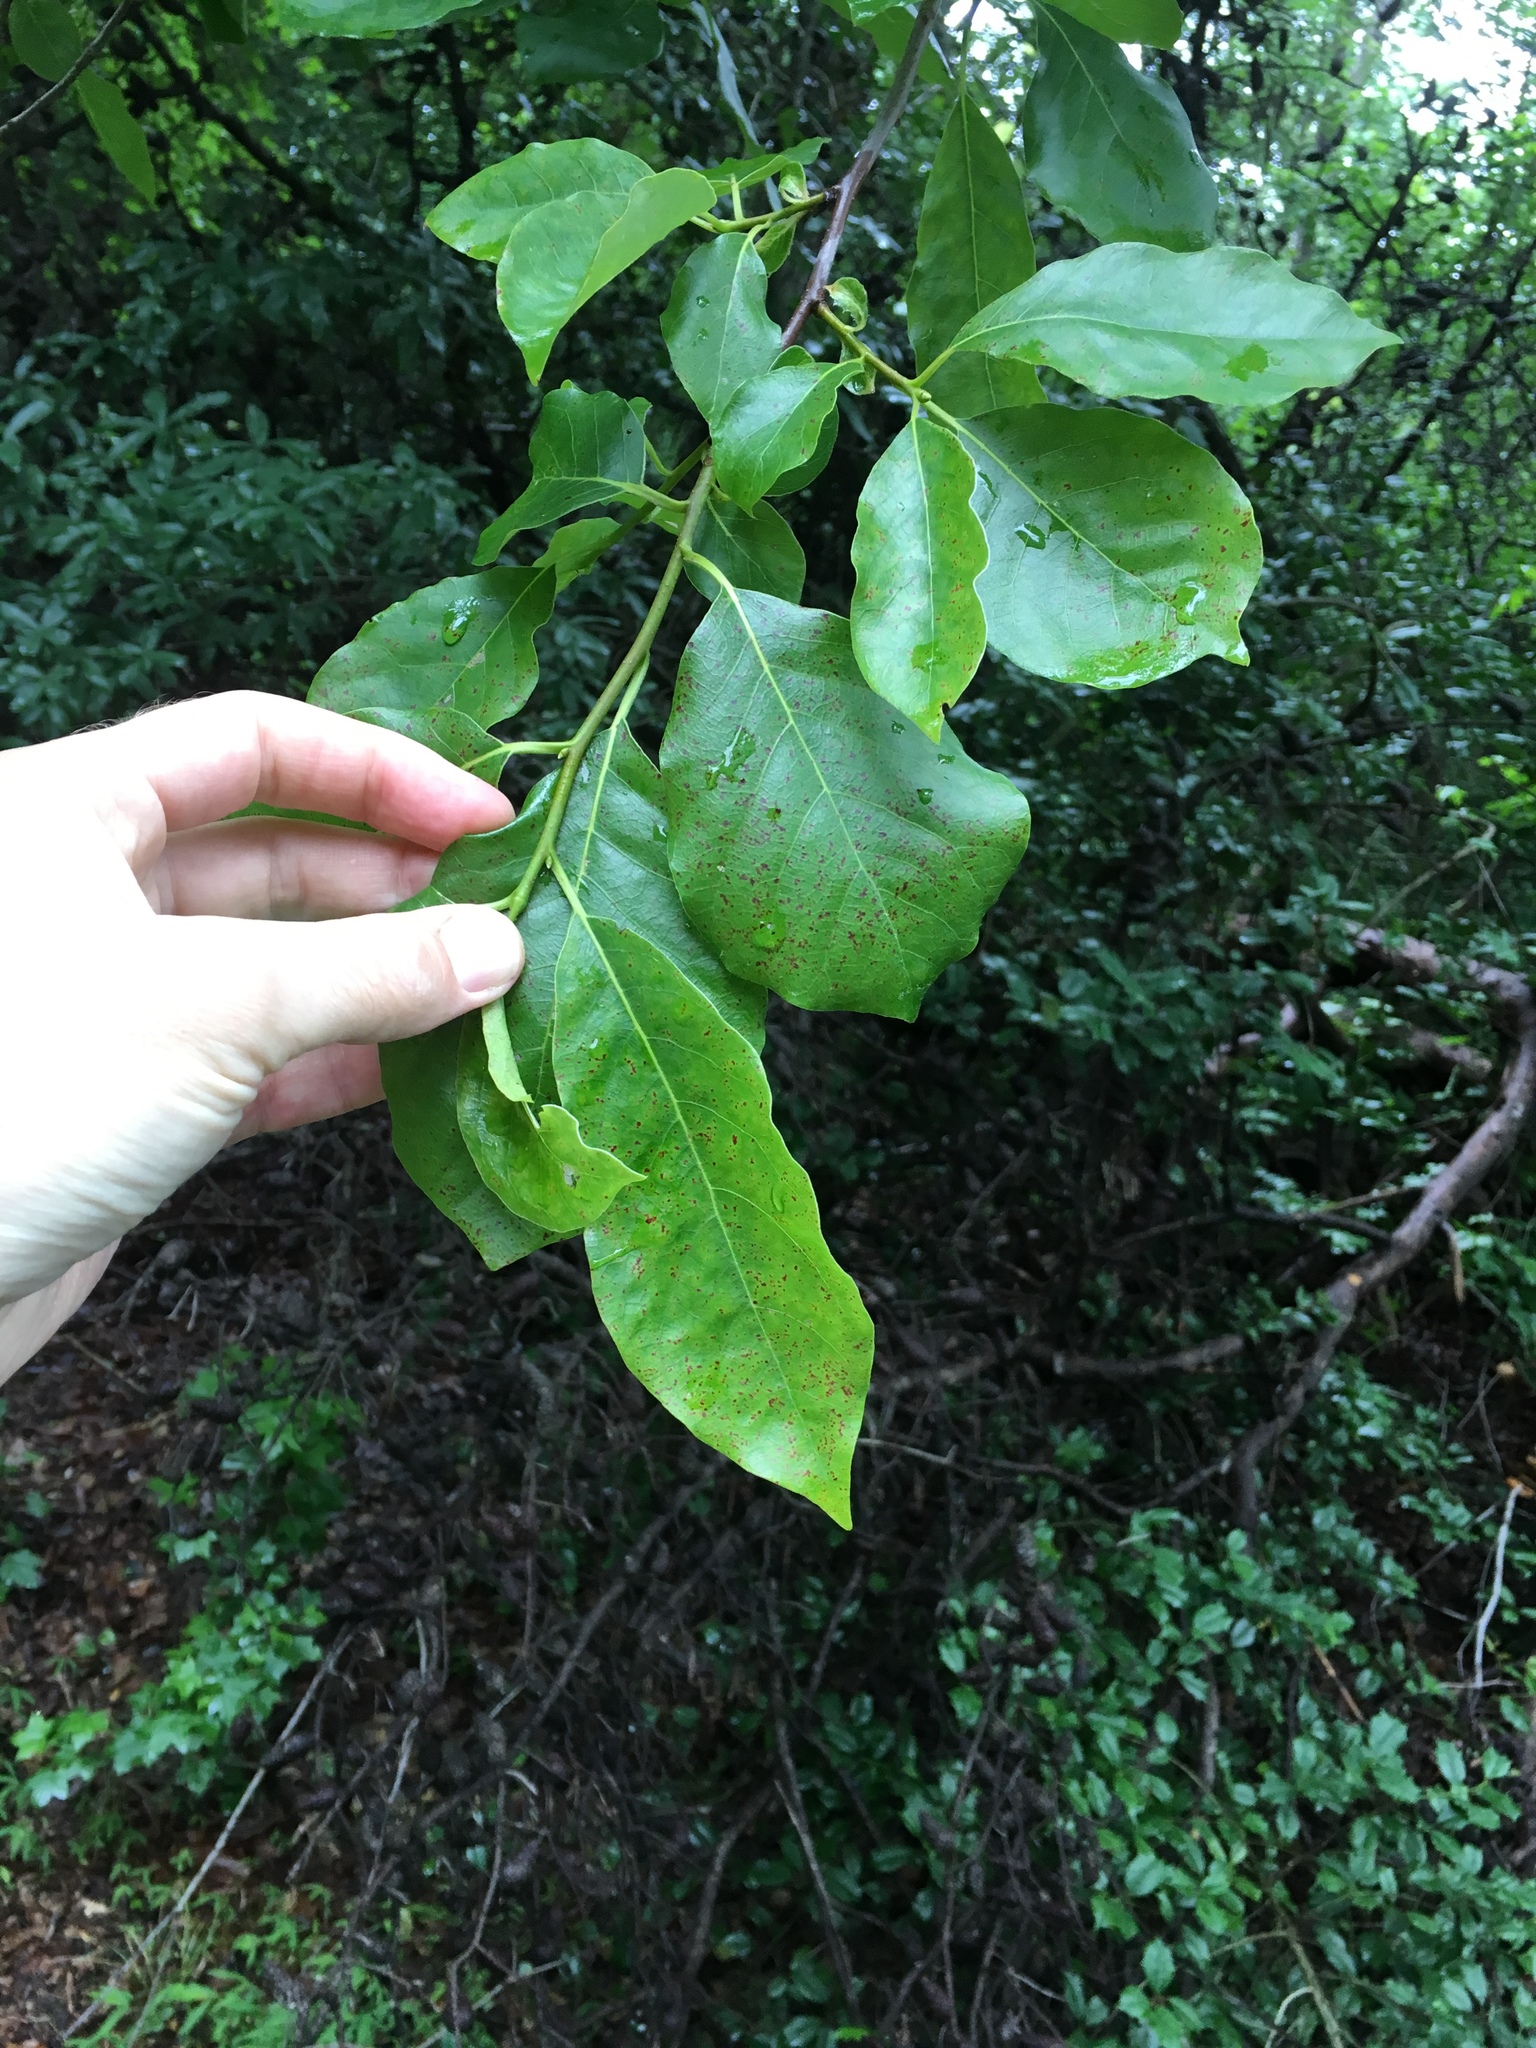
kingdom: Plantae
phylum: Tracheophyta
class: Magnoliopsida
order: Cornales
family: Nyssaceae
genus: Nyssa
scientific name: Nyssa sylvatica
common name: Black tupelo
